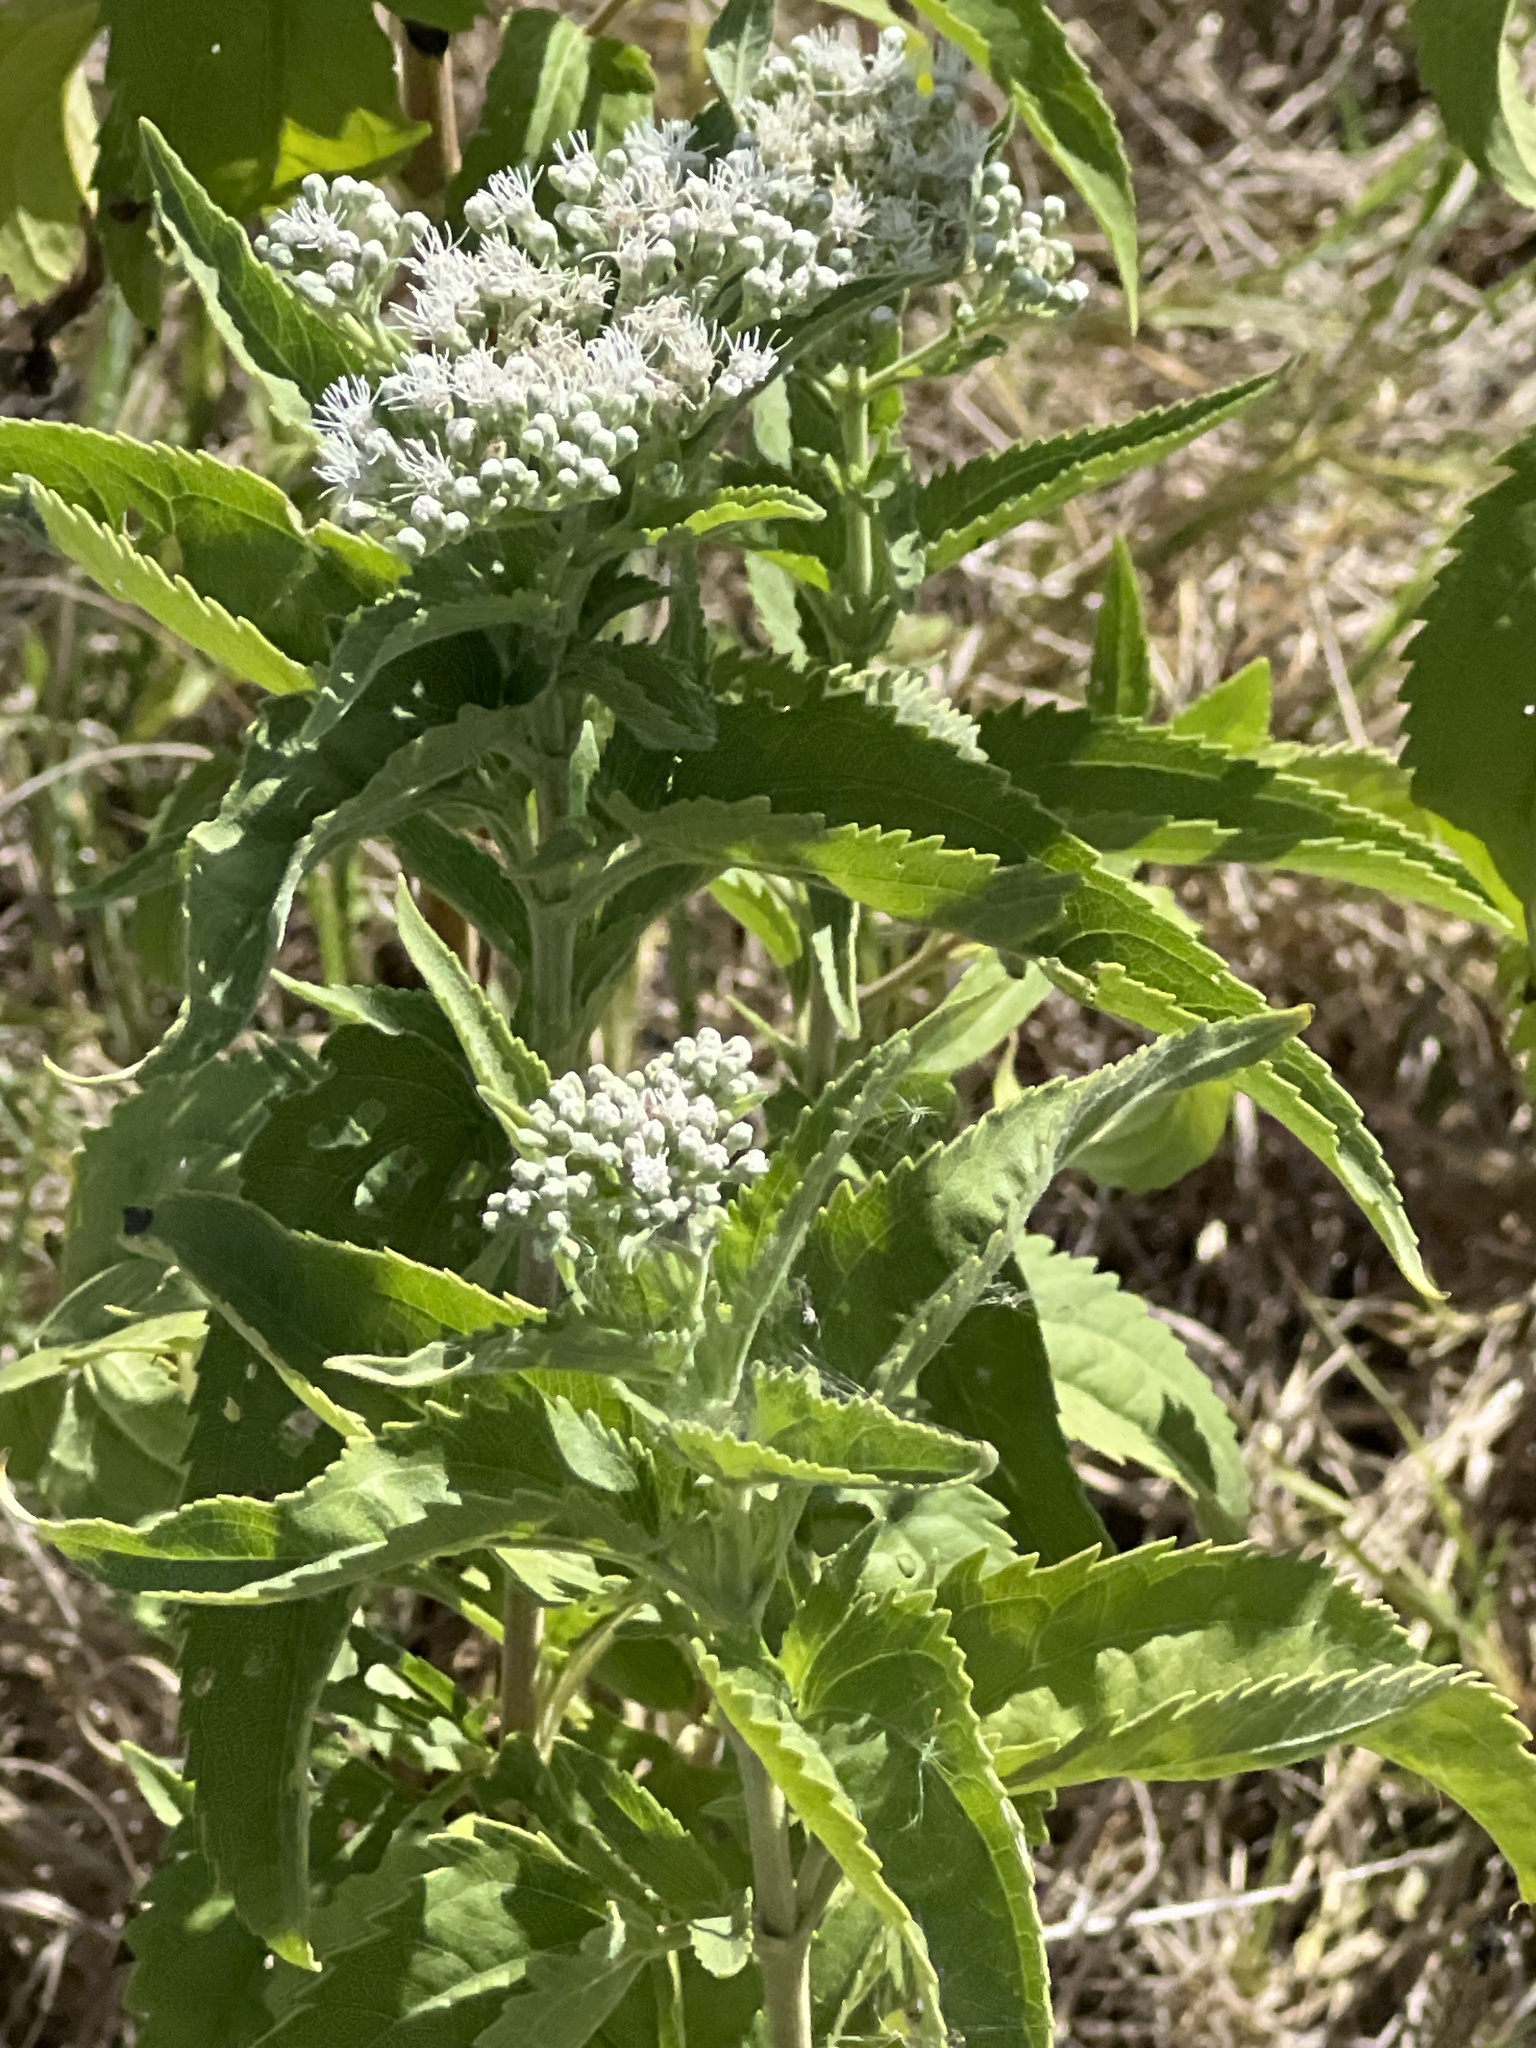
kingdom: Plantae
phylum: Tracheophyta
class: Magnoliopsida
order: Asterales
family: Asteraceae
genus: Eupatorium
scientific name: Eupatorium serotinum
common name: Late boneset
